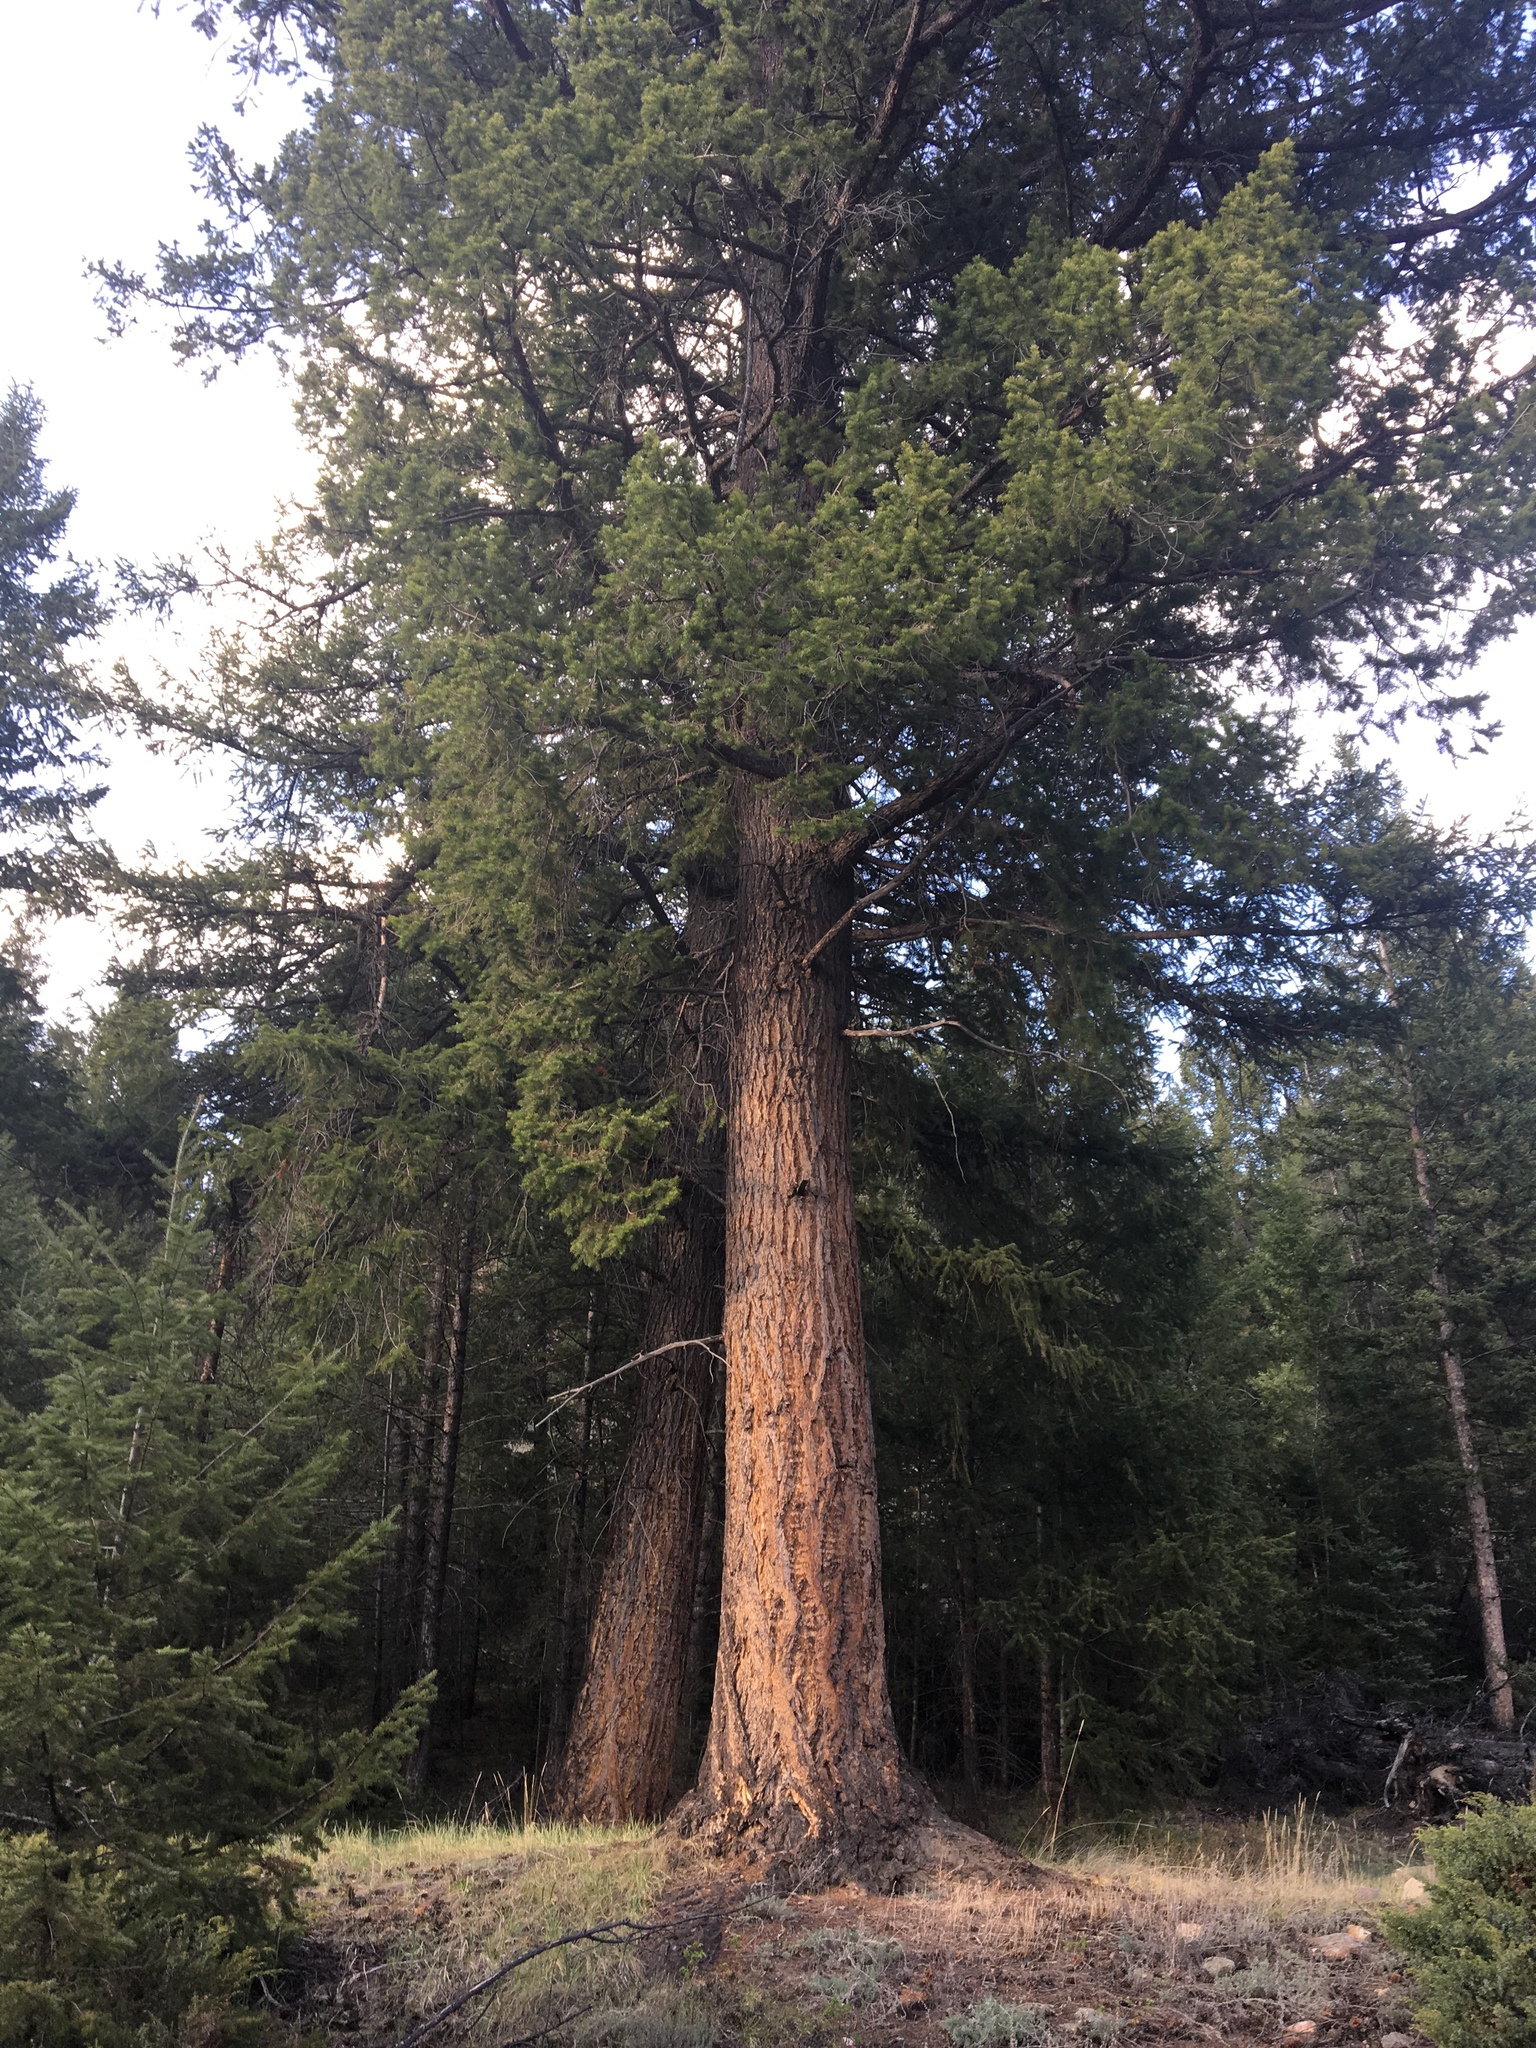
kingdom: Plantae
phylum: Tracheophyta
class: Pinopsida
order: Pinales
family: Pinaceae
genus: Pseudotsuga
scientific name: Pseudotsuga menziesii
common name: Douglas fir
